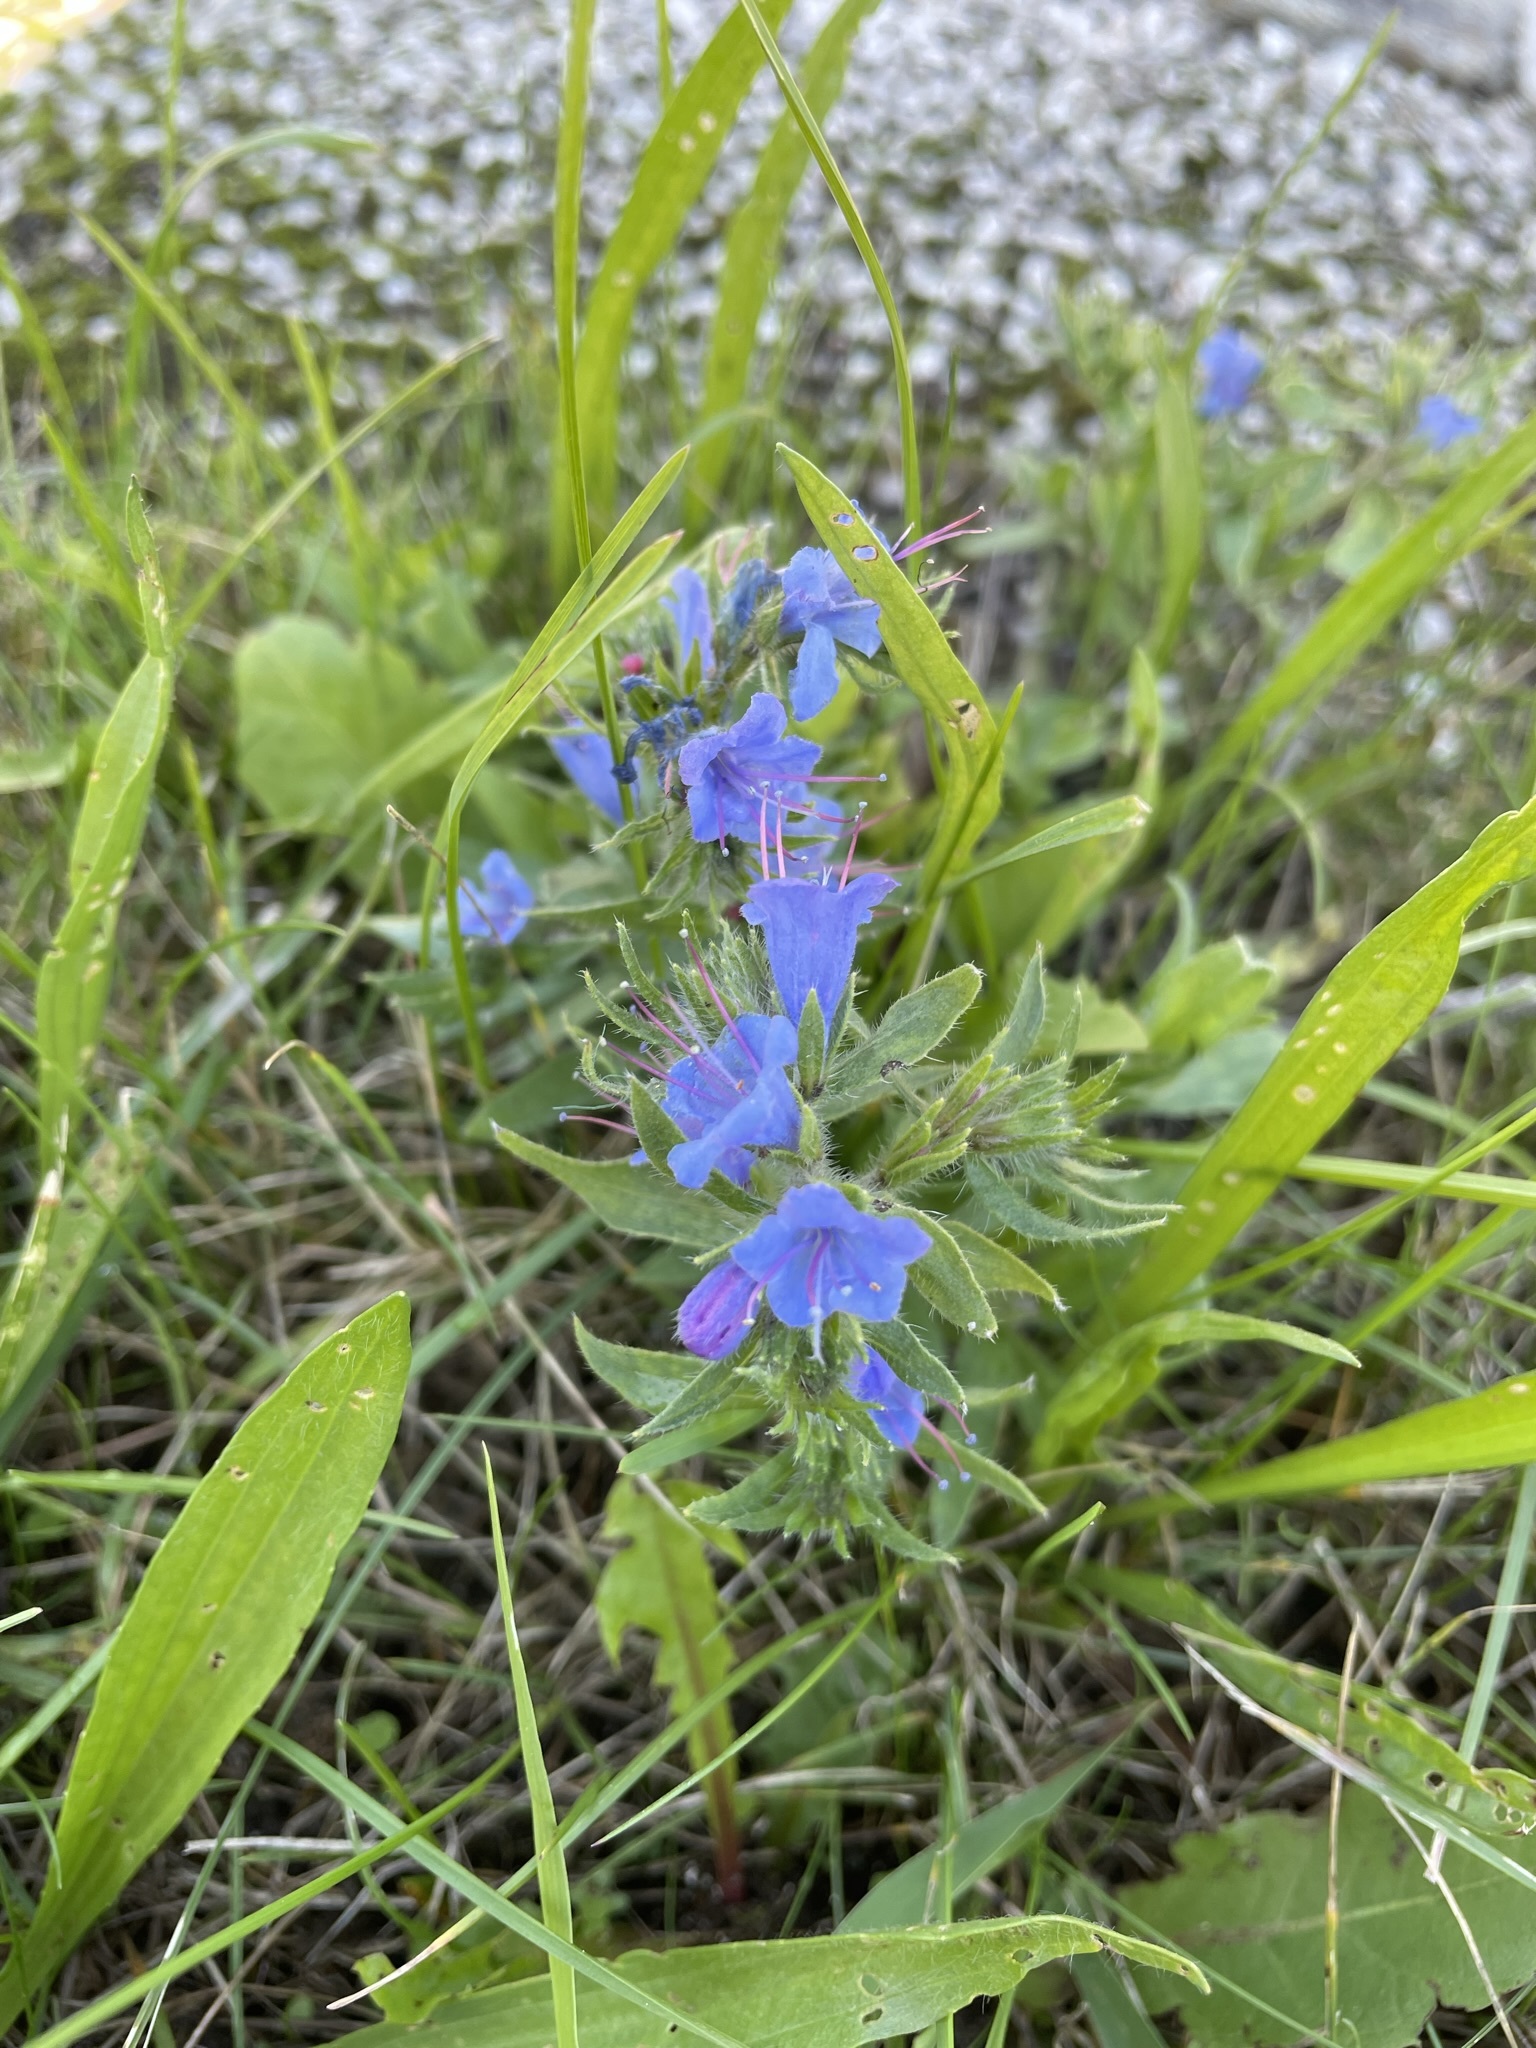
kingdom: Plantae
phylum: Tracheophyta
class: Magnoliopsida
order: Boraginales
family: Boraginaceae
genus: Echium
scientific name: Echium vulgare
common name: Common viper's bugloss
